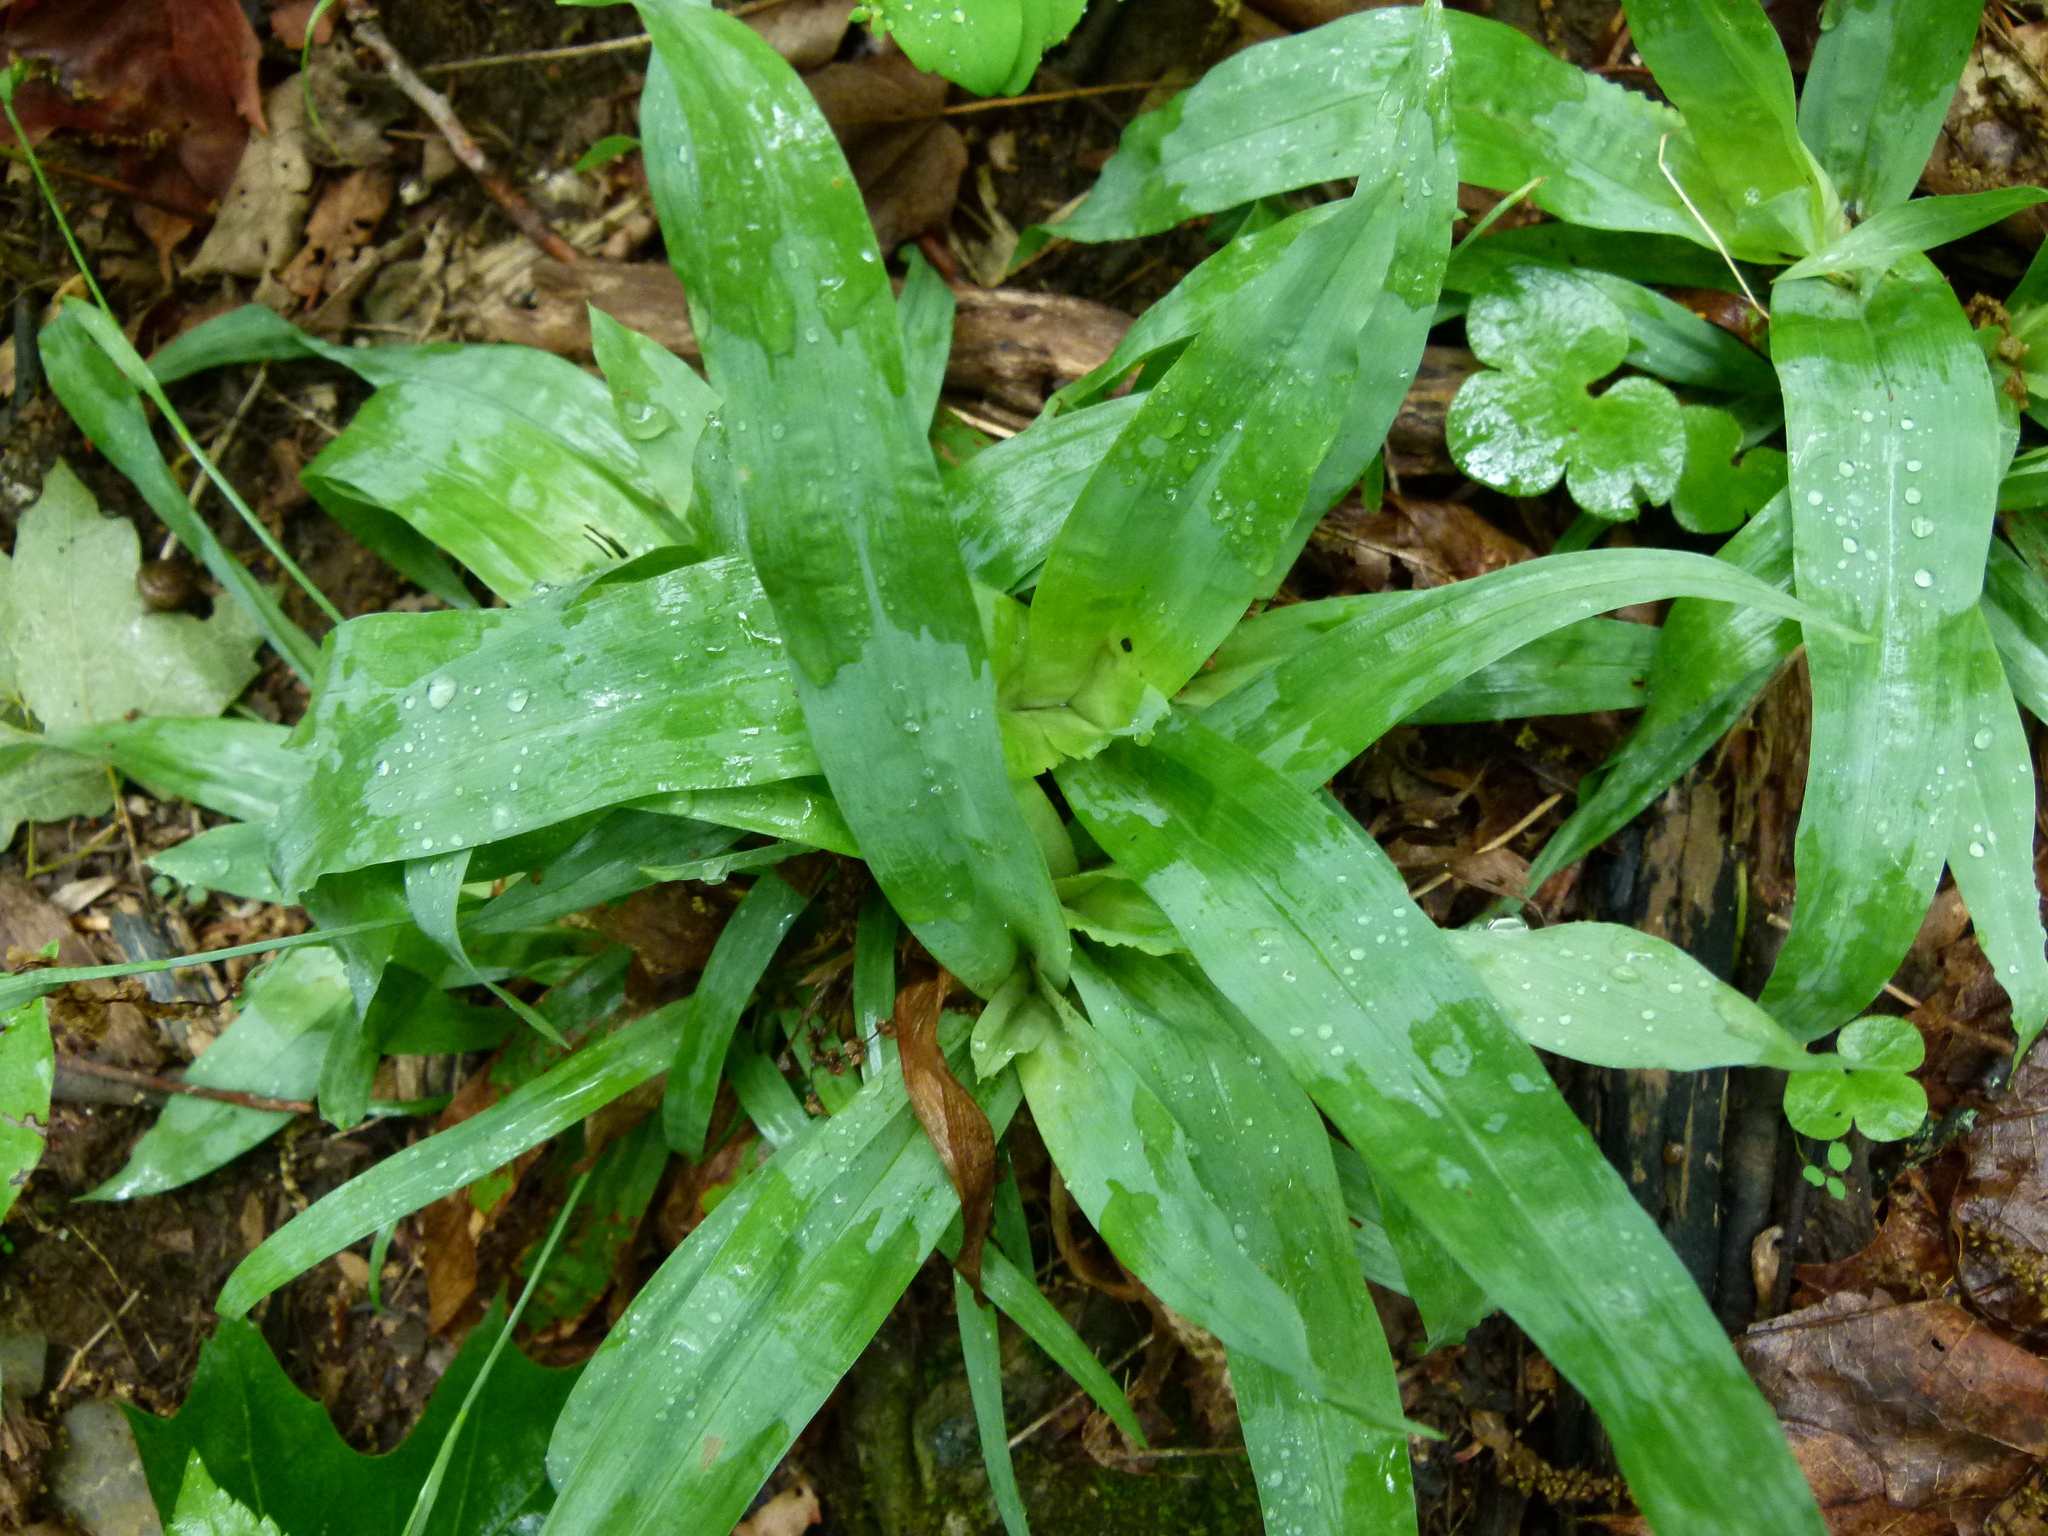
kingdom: Plantae
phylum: Tracheophyta
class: Liliopsida
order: Poales
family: Cyperaceae
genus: Carex
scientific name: Carex platyphylla
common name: Broad-leaved sedge
